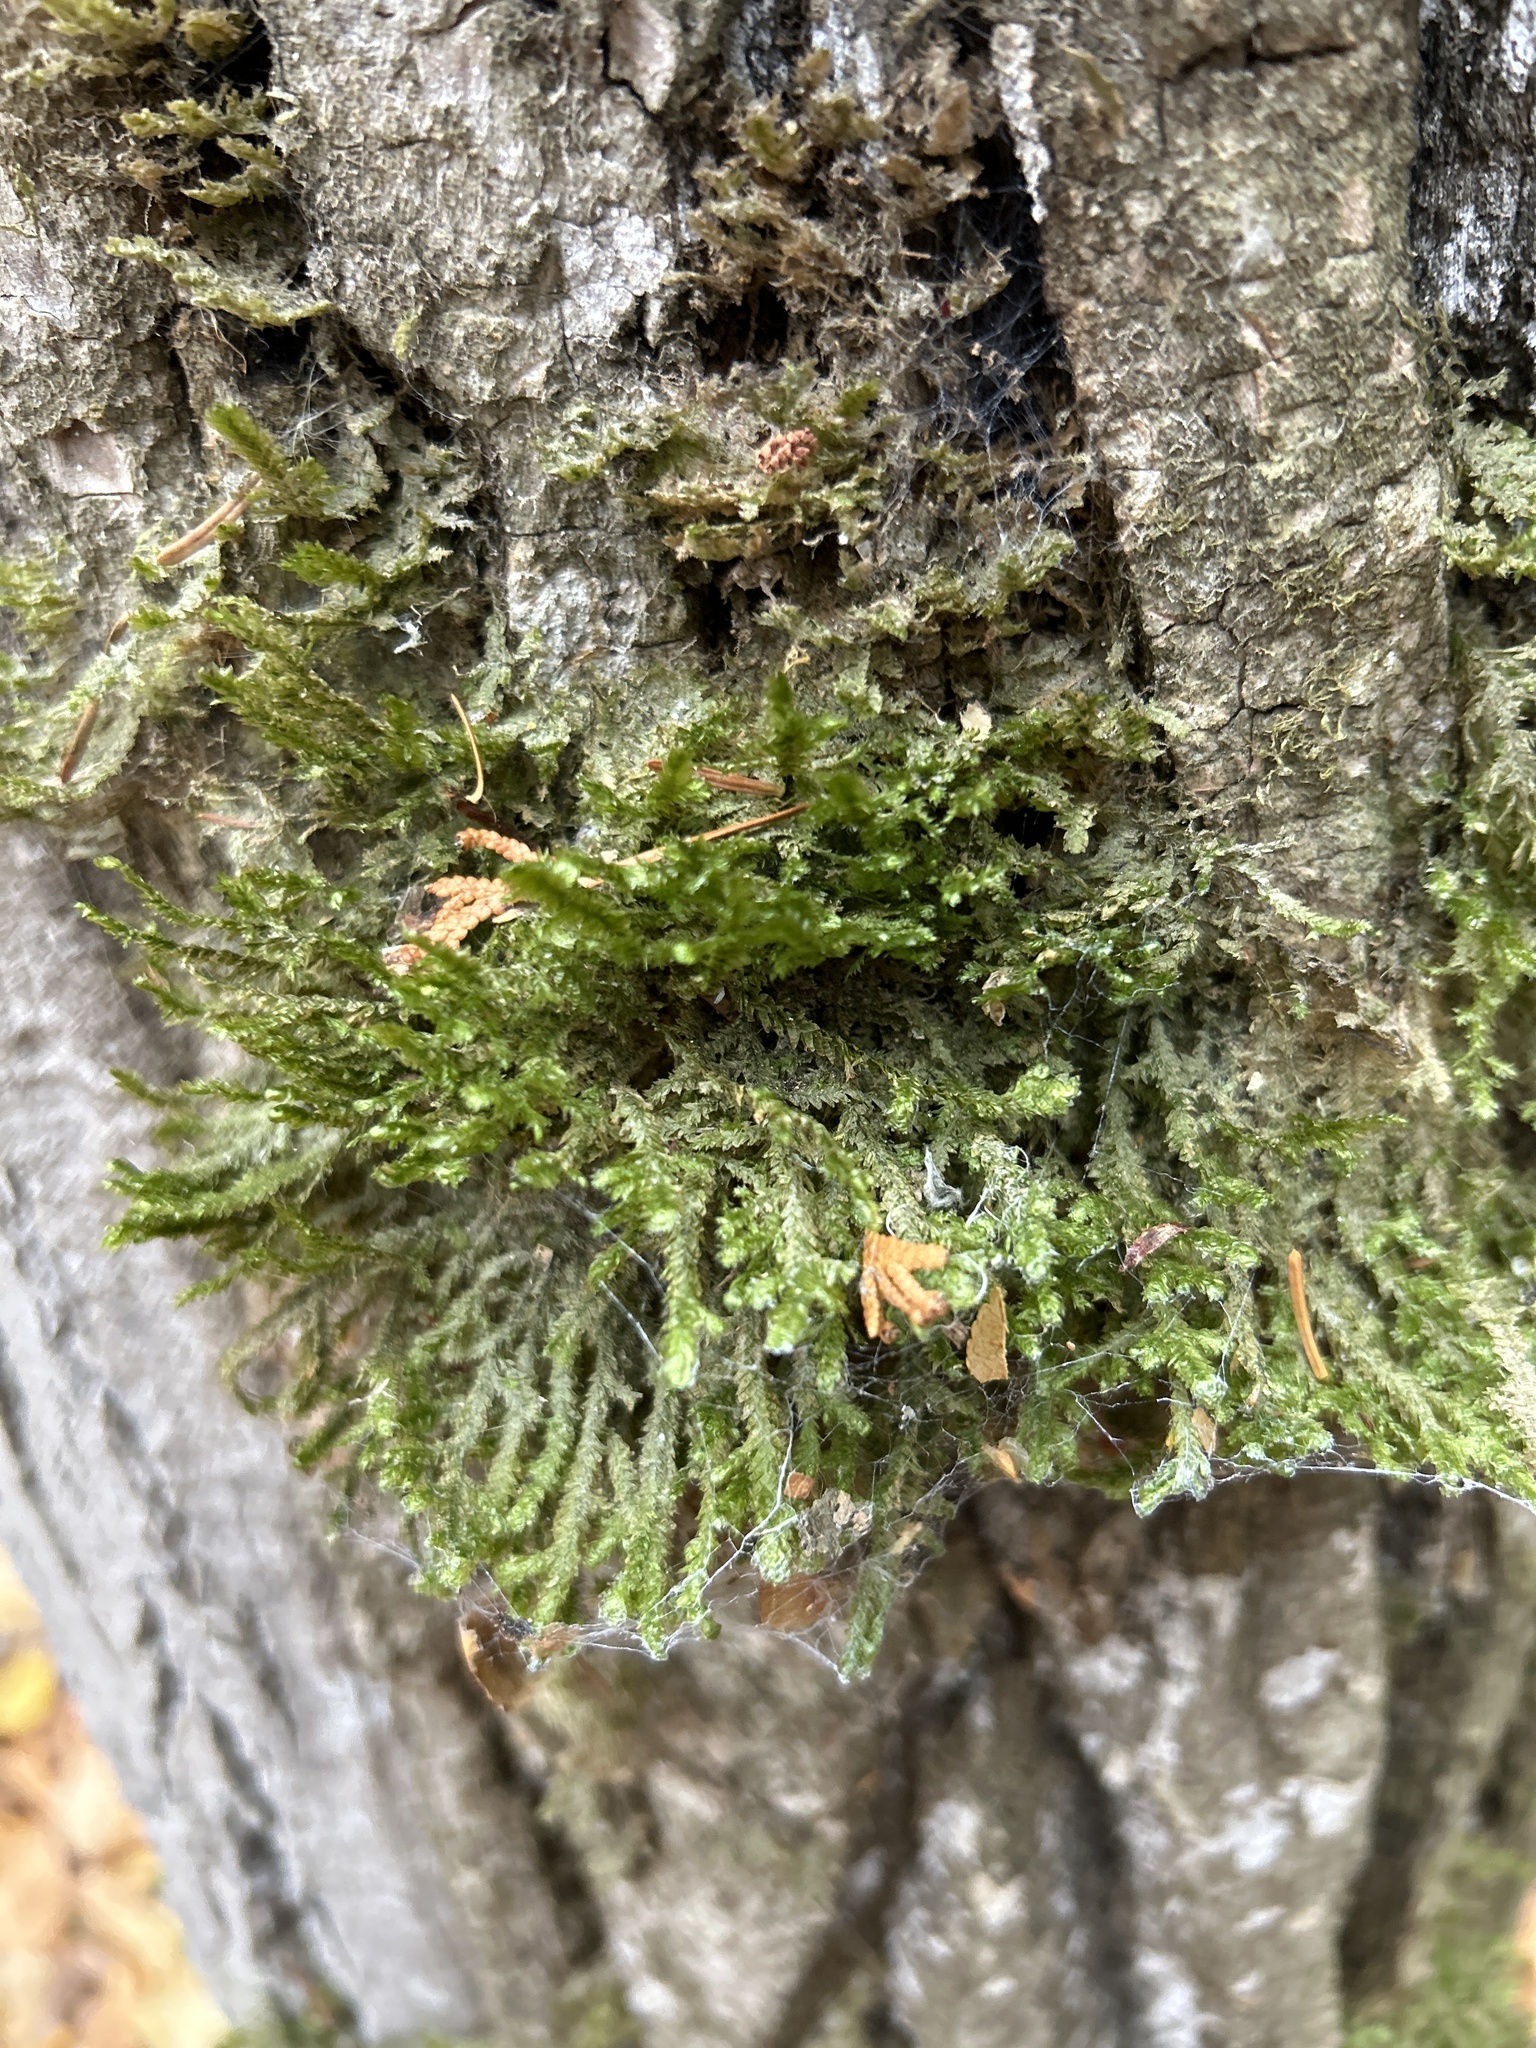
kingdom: Plantae
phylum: Bryophyta
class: Bryopsida
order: Hypnales
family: Neckeraceae
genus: Neckera
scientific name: Neckera pennata
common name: Feathery neckera
